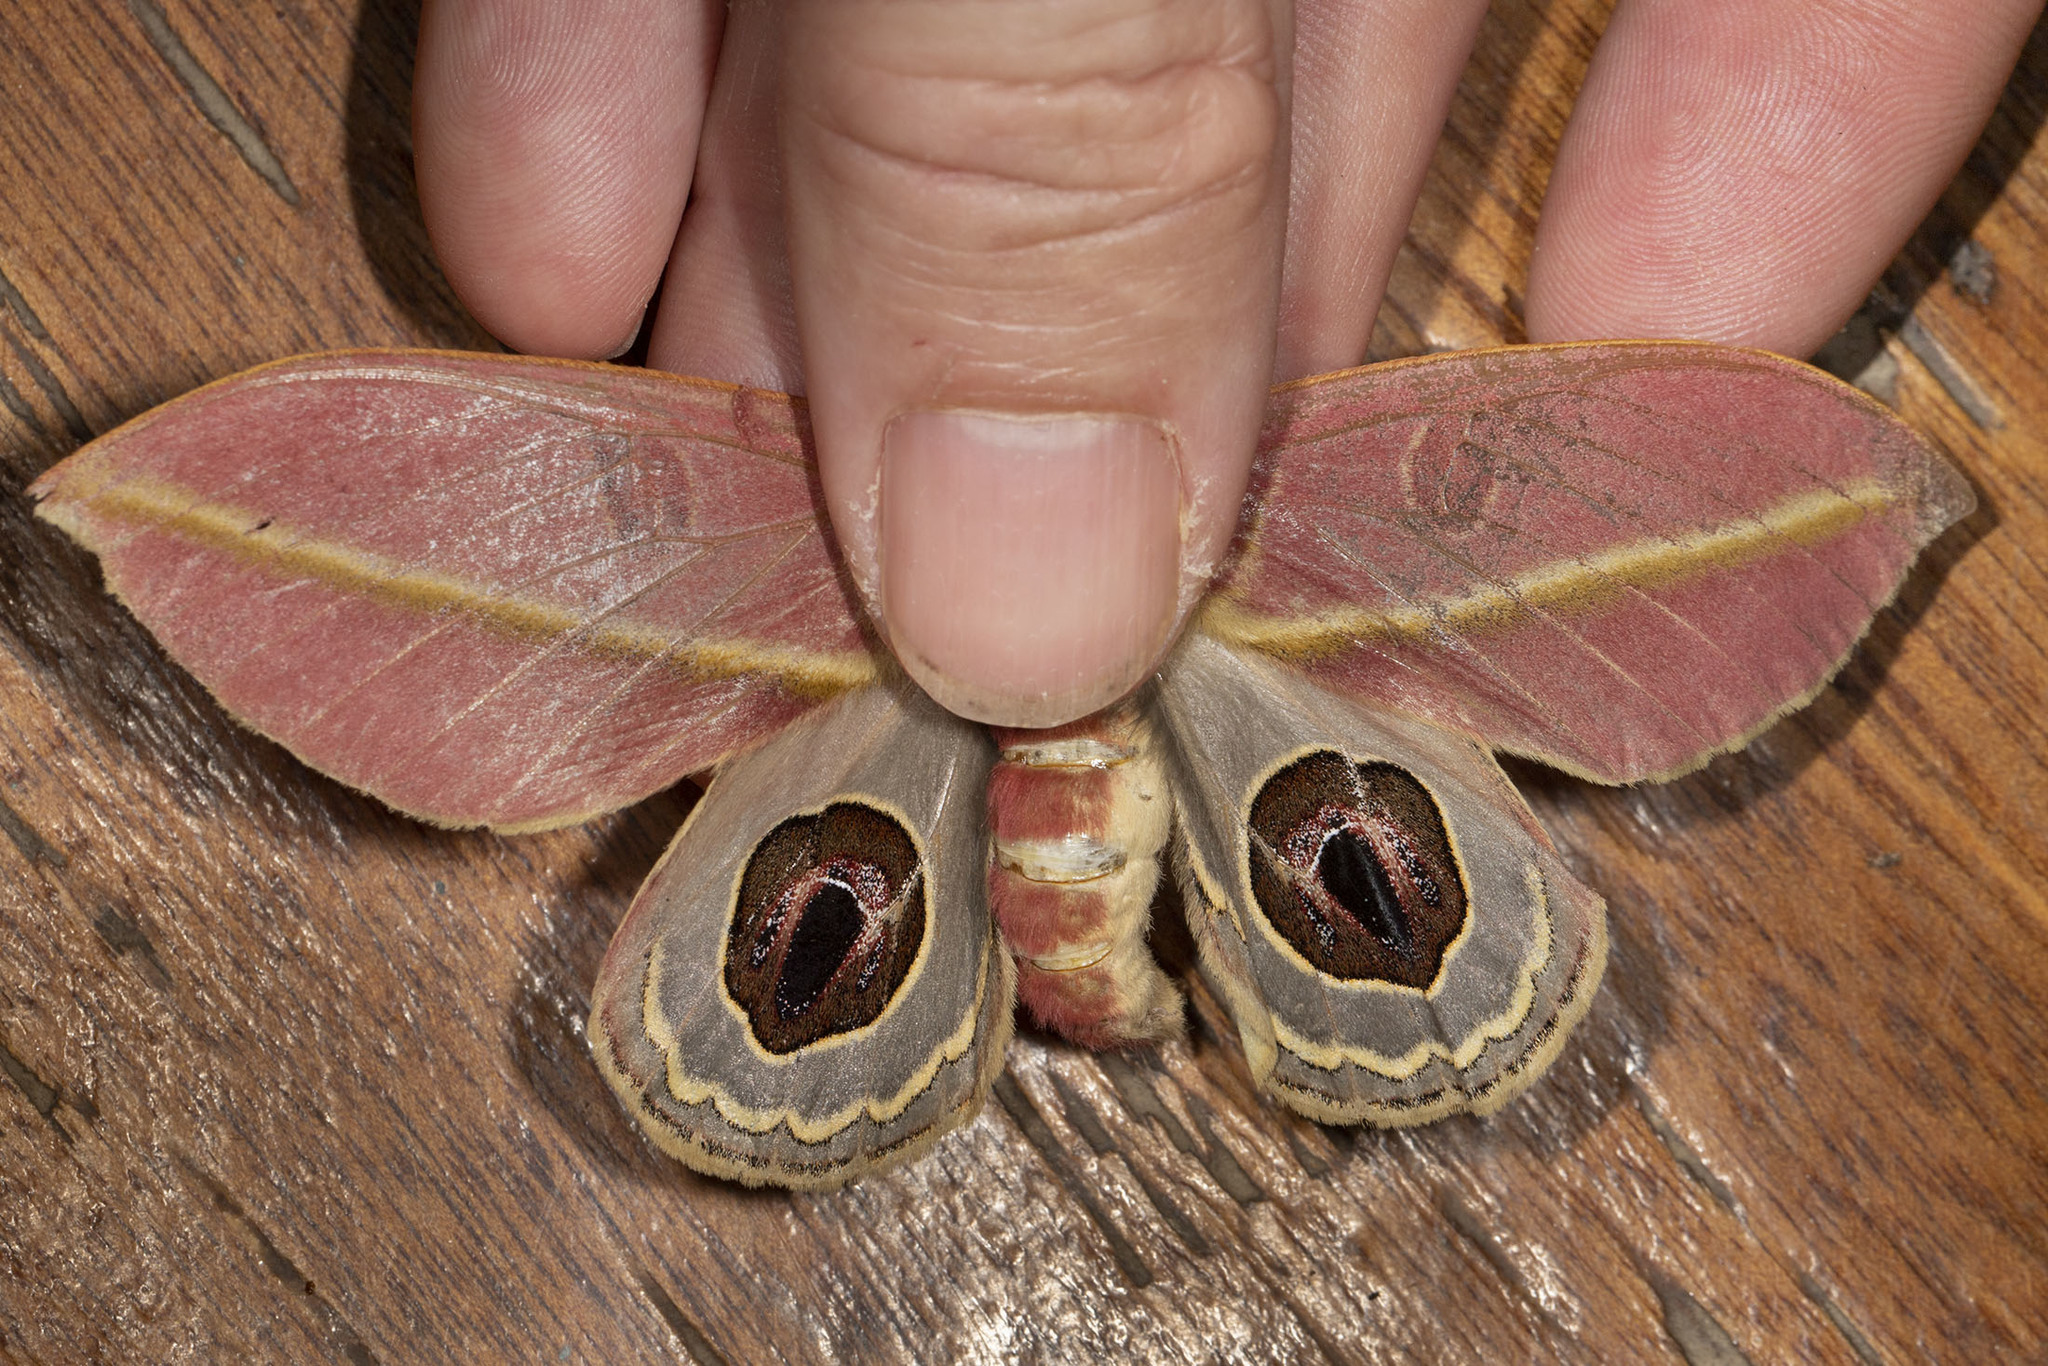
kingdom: Animalia
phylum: Arthropoda
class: Insecta
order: Lepidoptera
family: Saturniidae
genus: Leucanella
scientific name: Leucanella apollinairei
